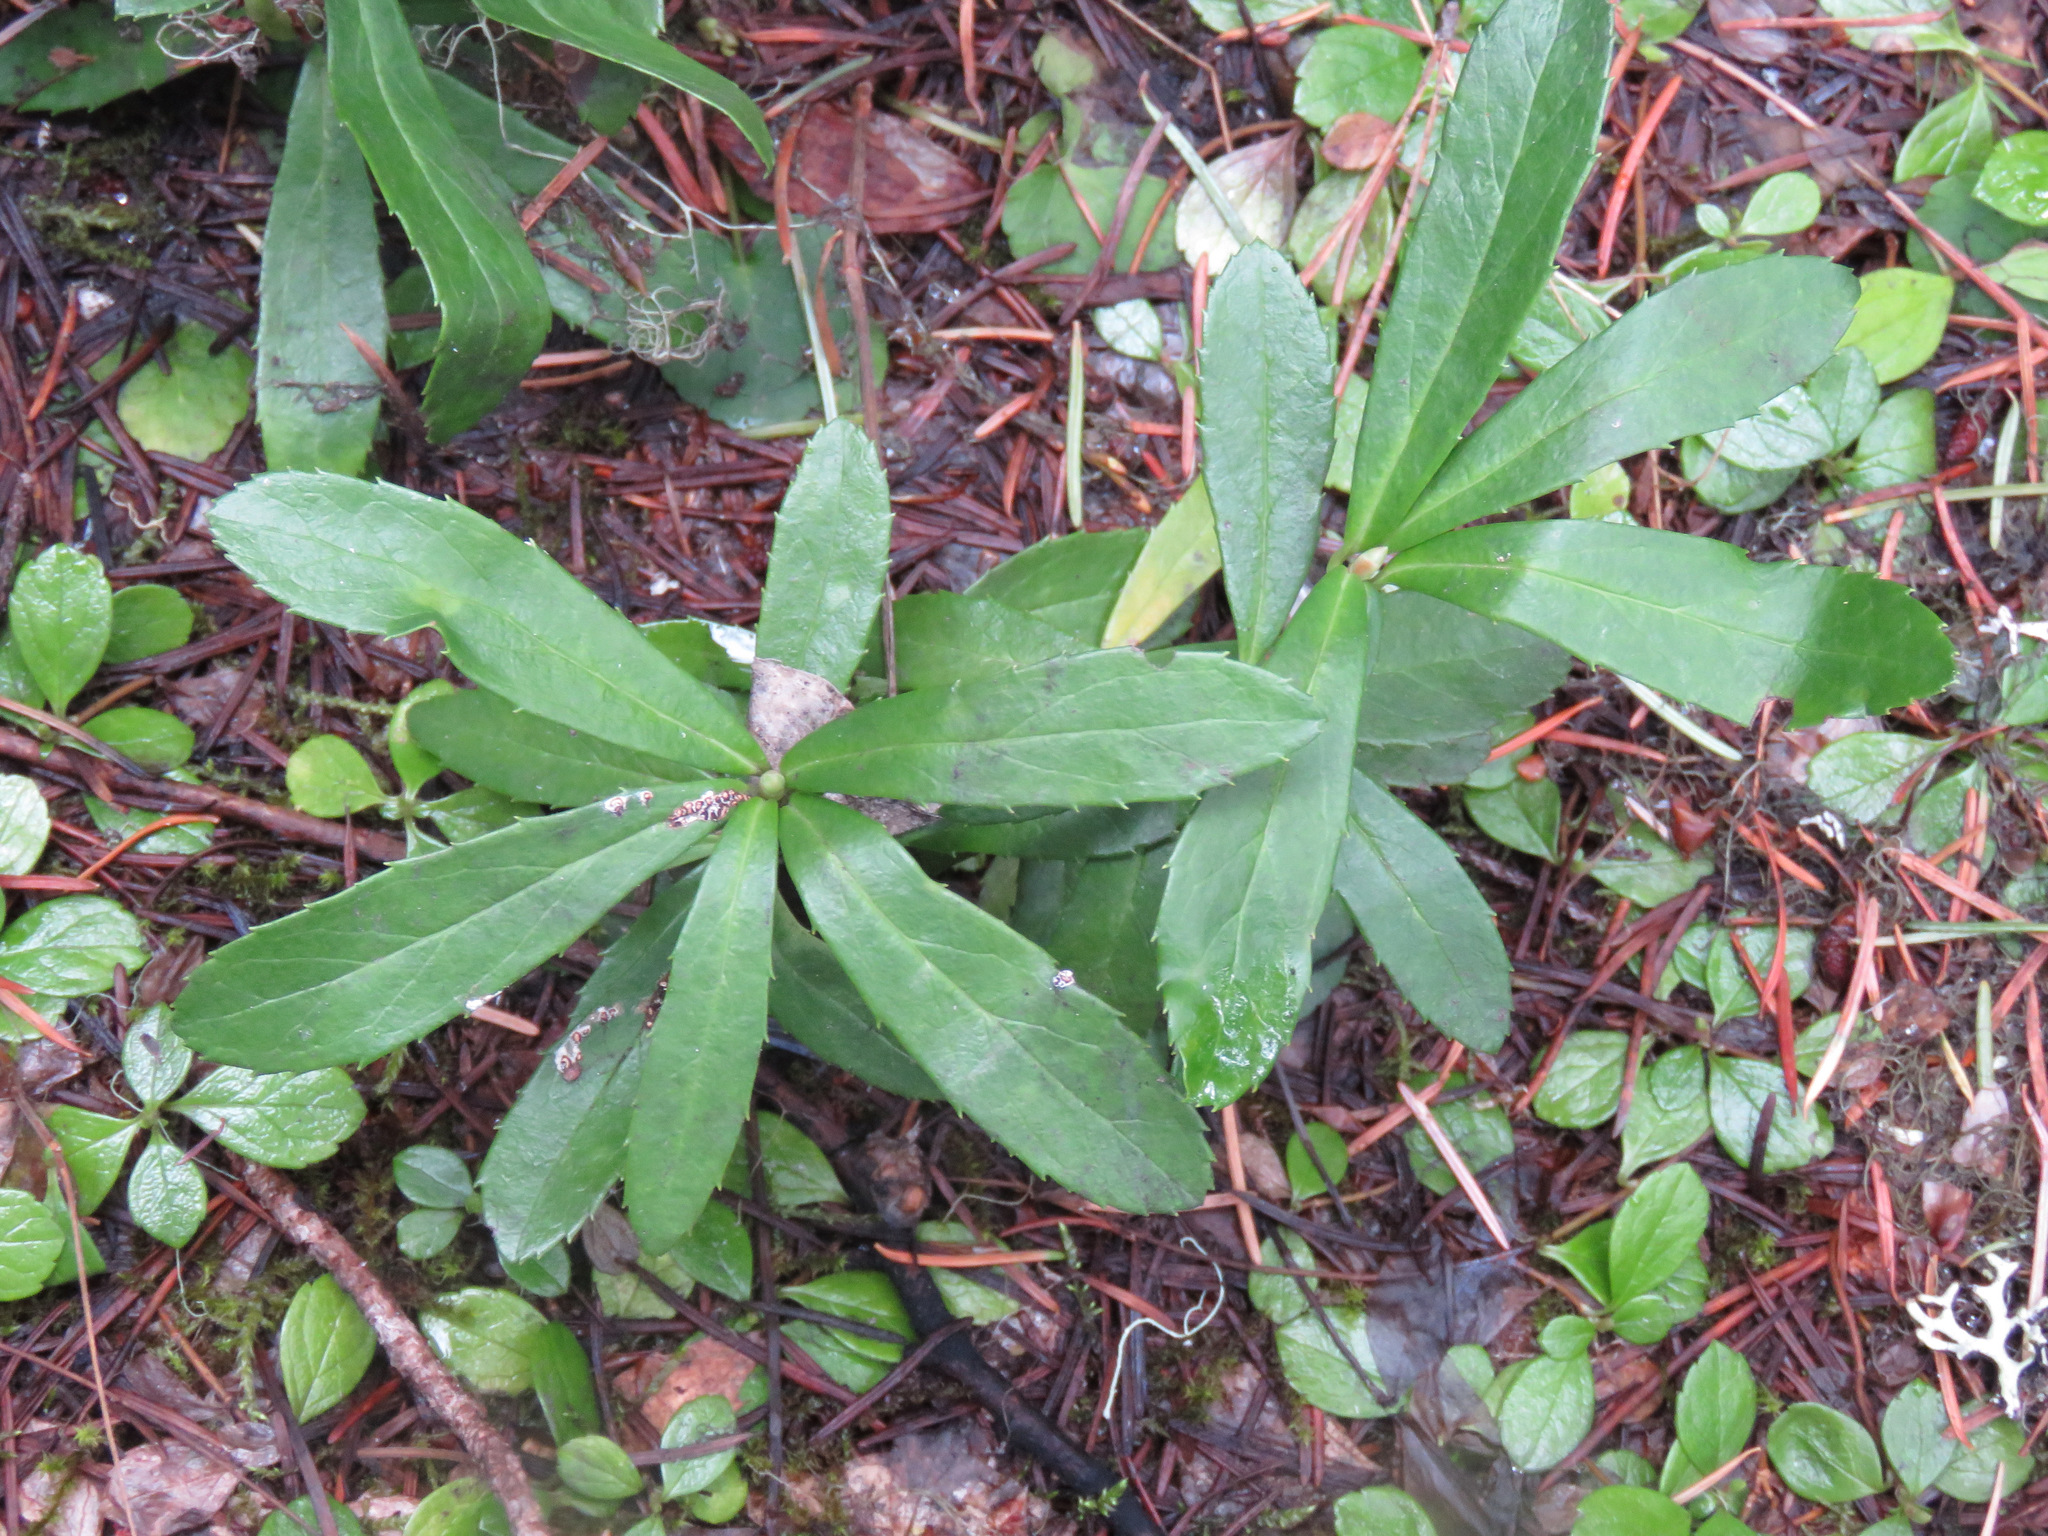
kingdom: Plantae
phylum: Tracheophyta
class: Magnoliopsida
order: Ericales
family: Ericaceae
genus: Chimaphila
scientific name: Chimaphila umbellata
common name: Pipsissewa
